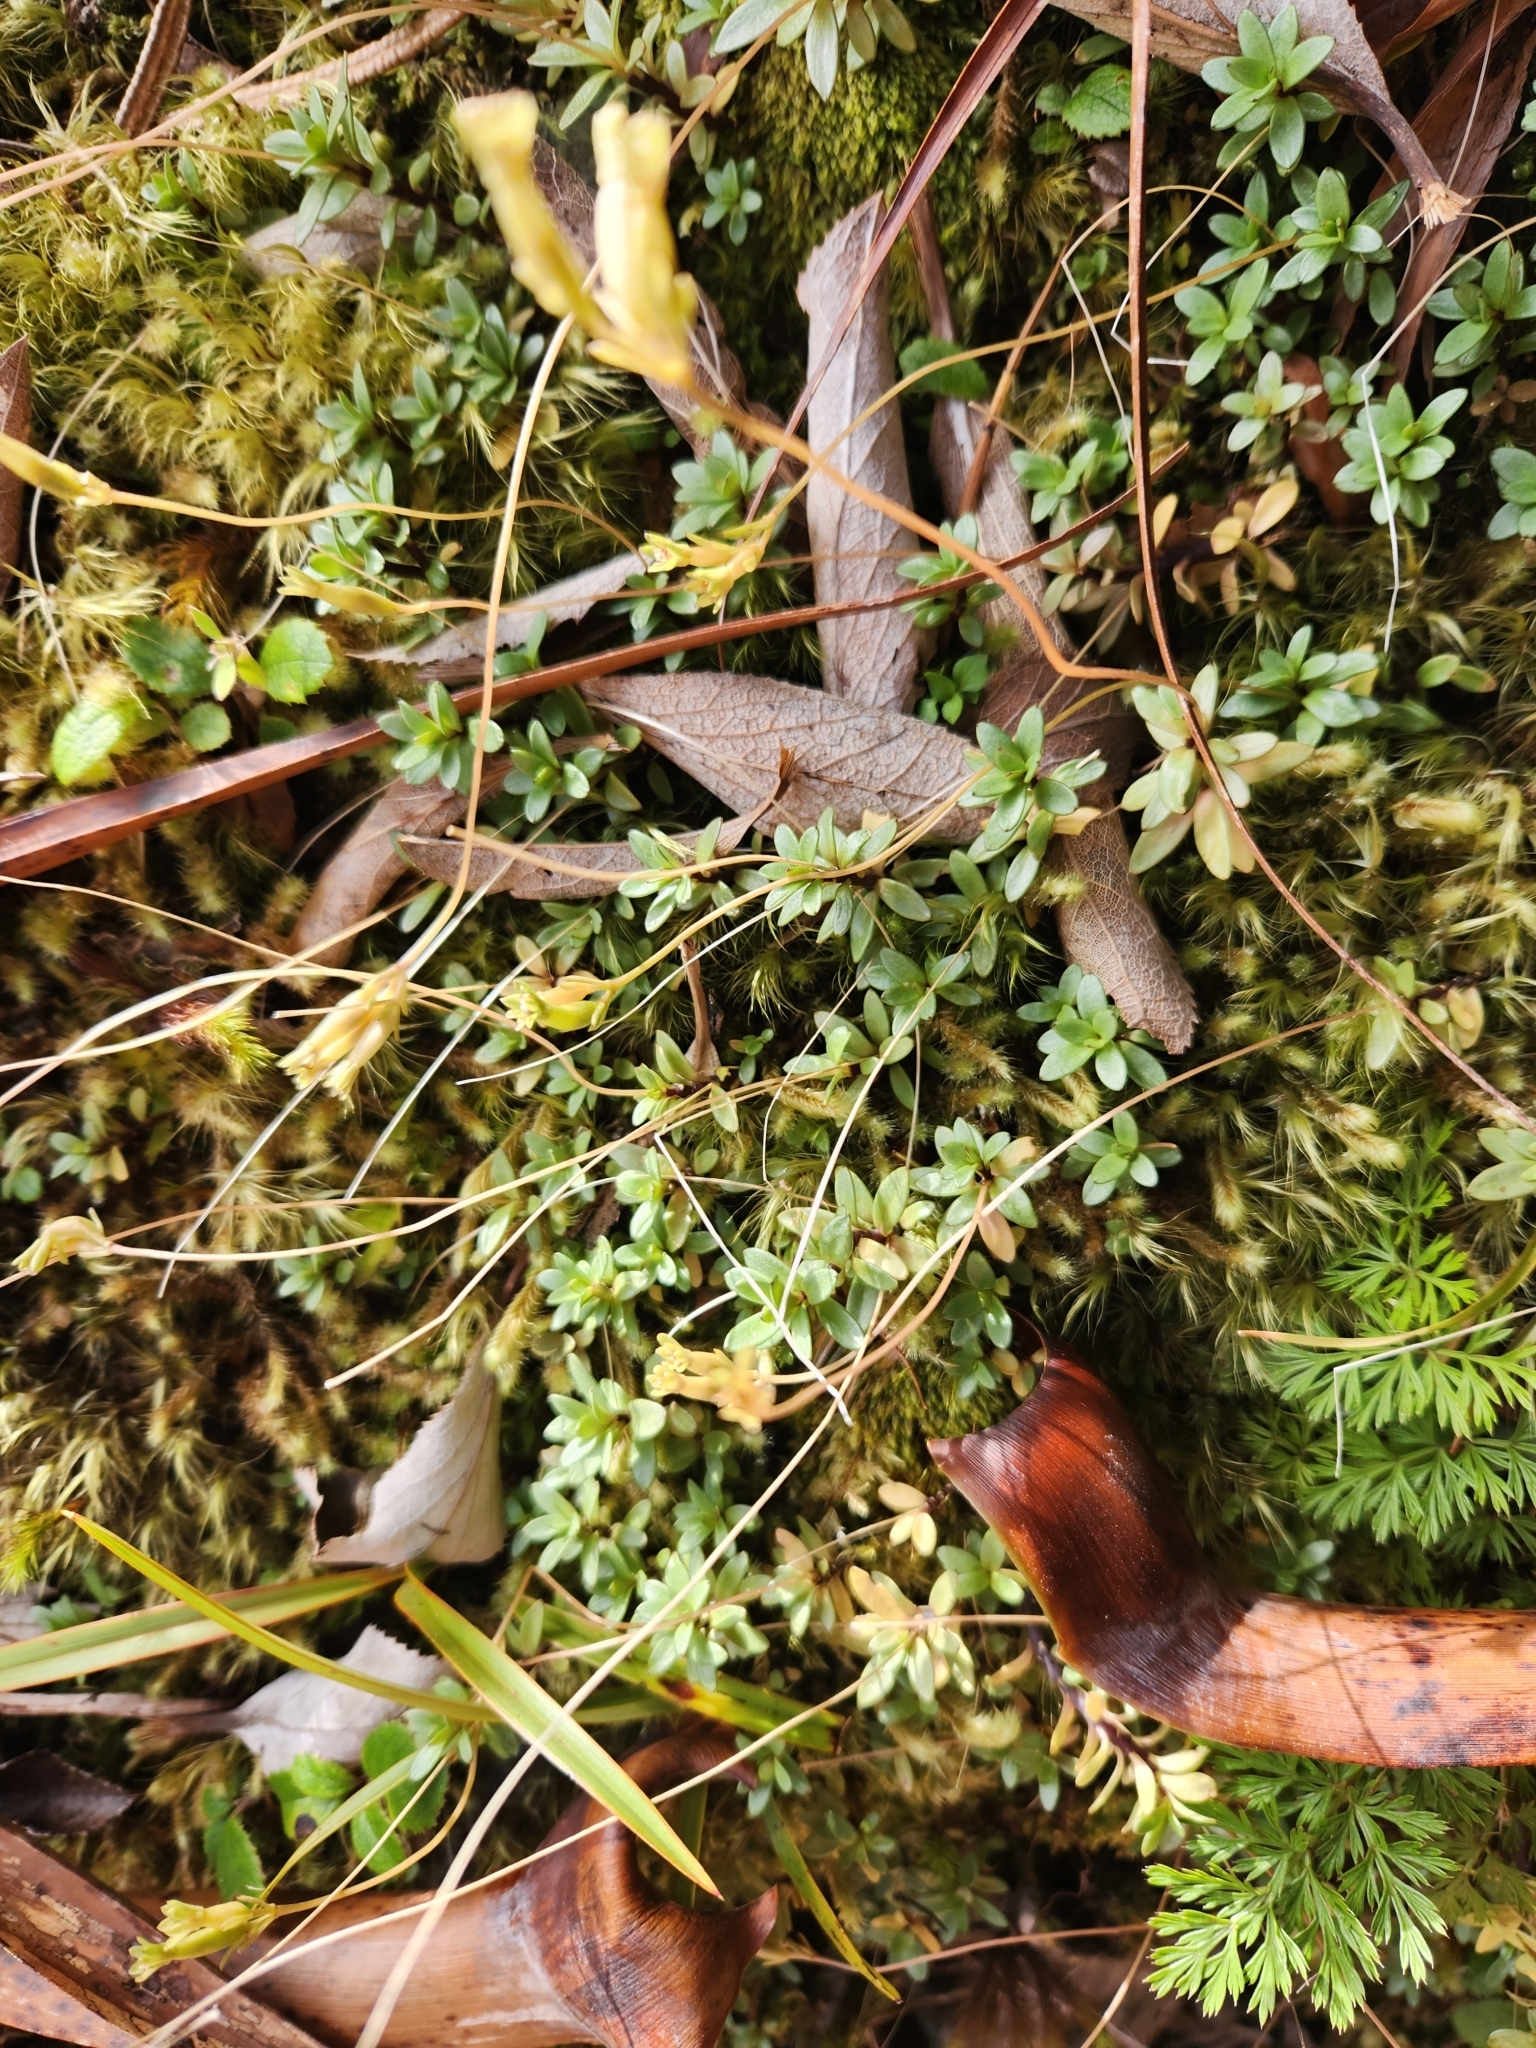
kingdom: Plantae
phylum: Tracheophyta
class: Magnoliopsida
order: Caryophyllales
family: Montiaceae
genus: Montia
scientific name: Montia fontana
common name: Blinks
